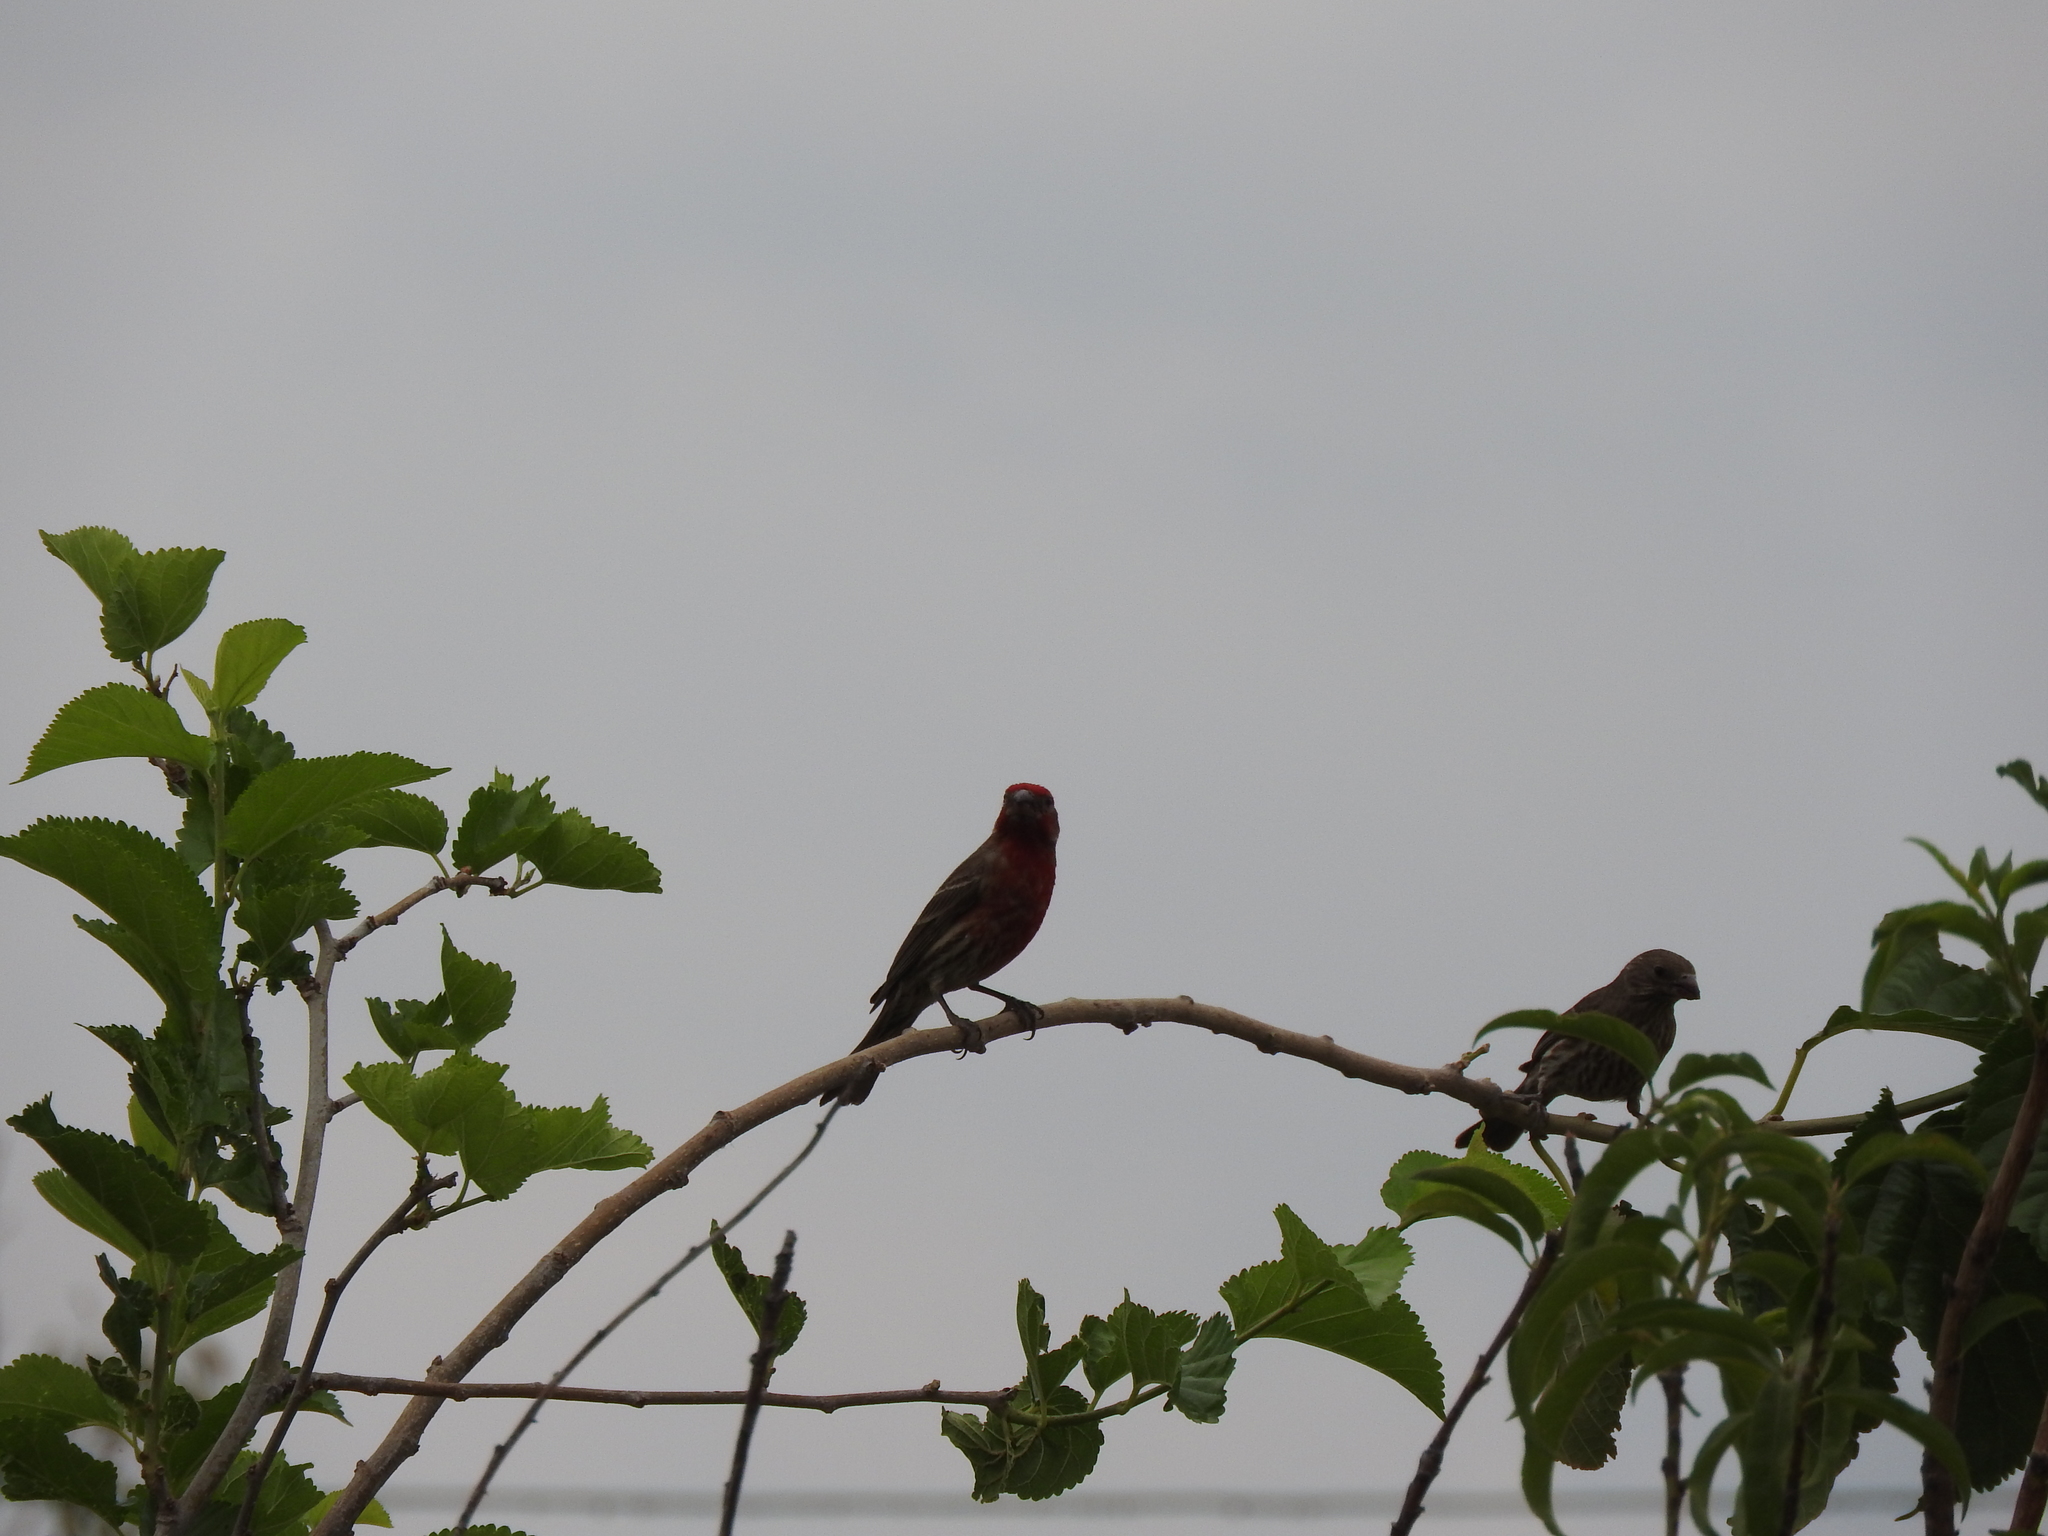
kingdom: Animalia
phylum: Chordata
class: Aves
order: Passeriformes
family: Fringillidae
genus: Haemorhous
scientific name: Haemorhous mexicanus
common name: House finch
